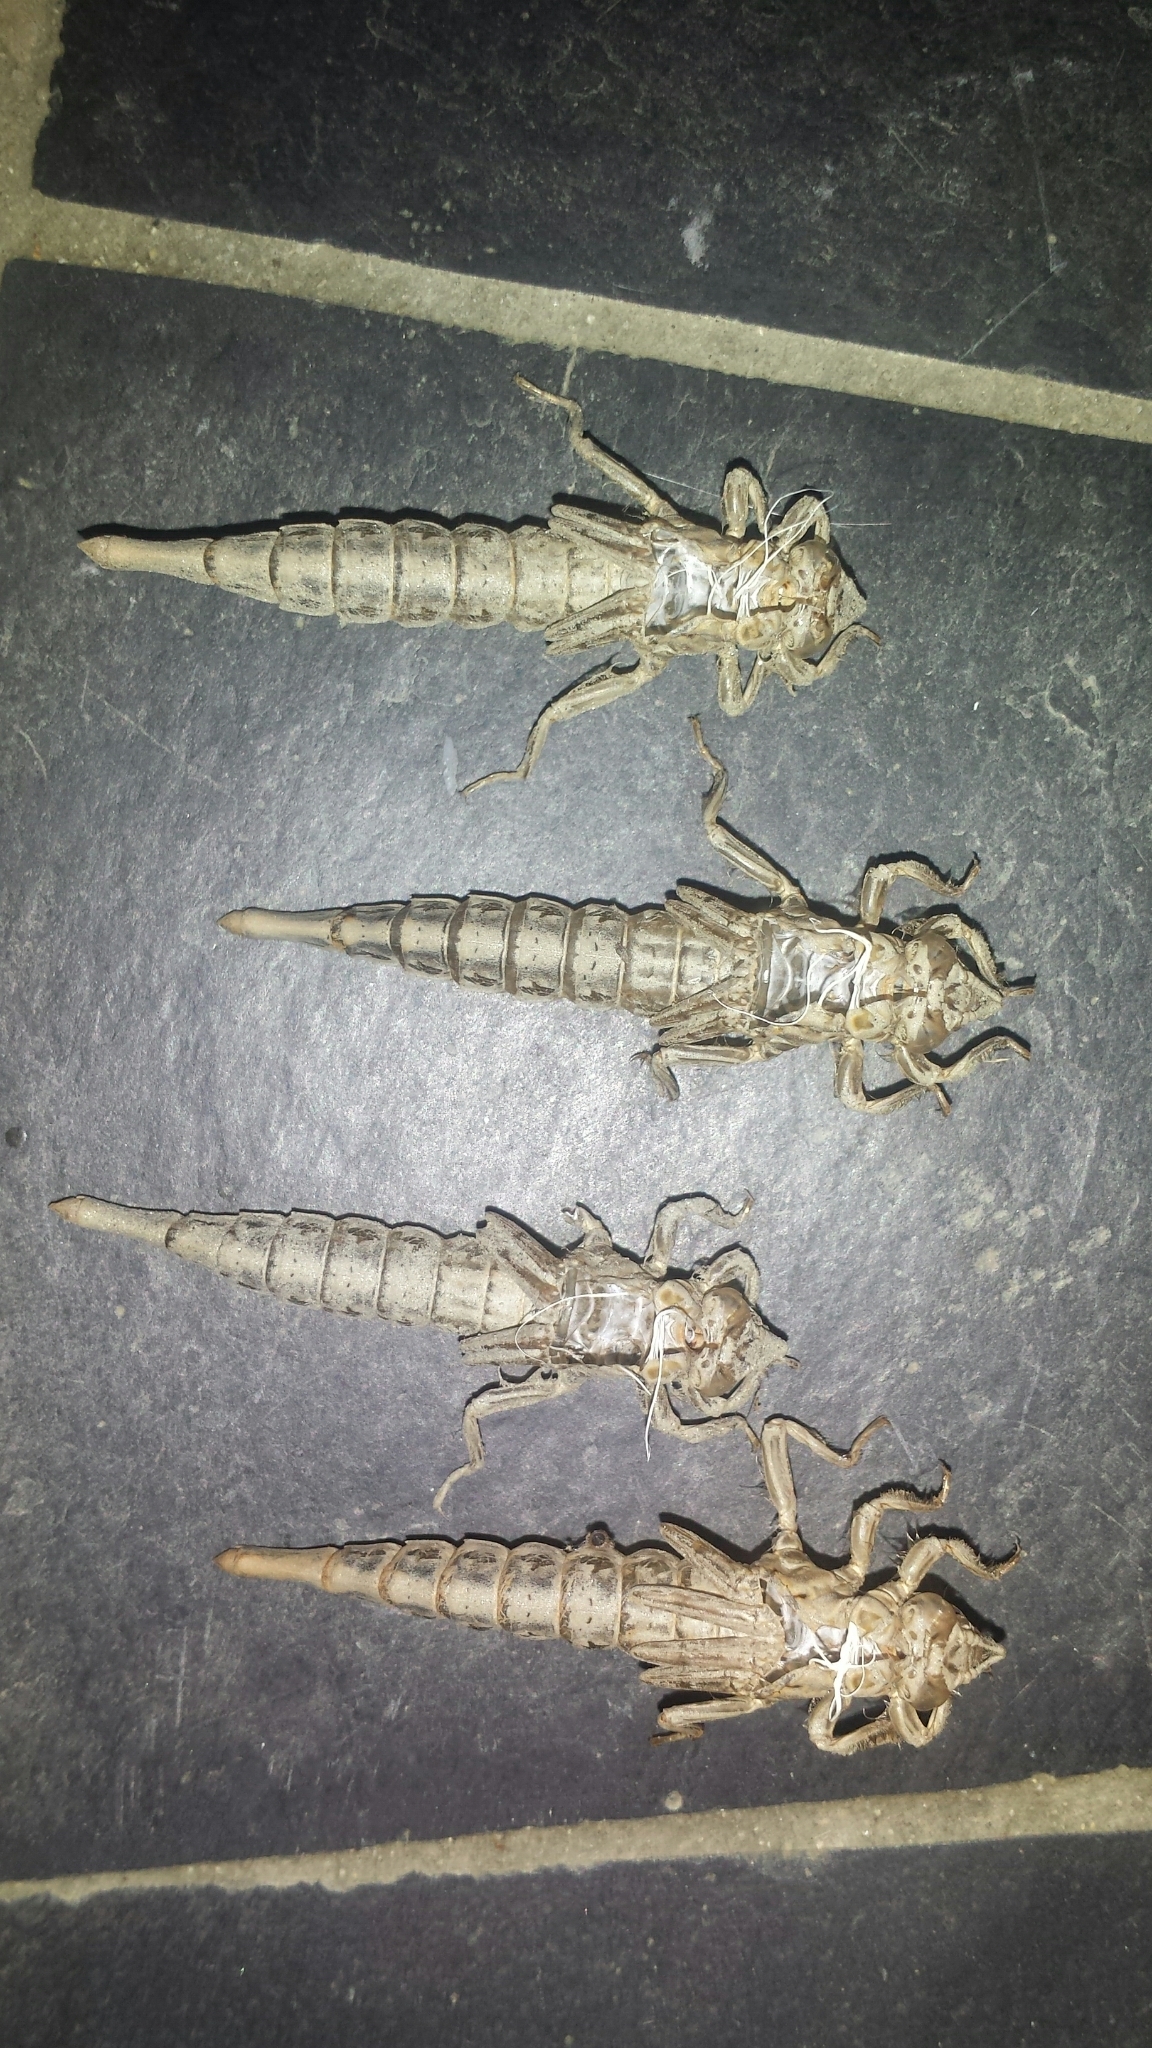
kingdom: Animalia
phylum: Arthropoda
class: Insecta
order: Odonata
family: Gomphidae
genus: Stylurus
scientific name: Stylurus spiniceps
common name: Arrow clubtail
